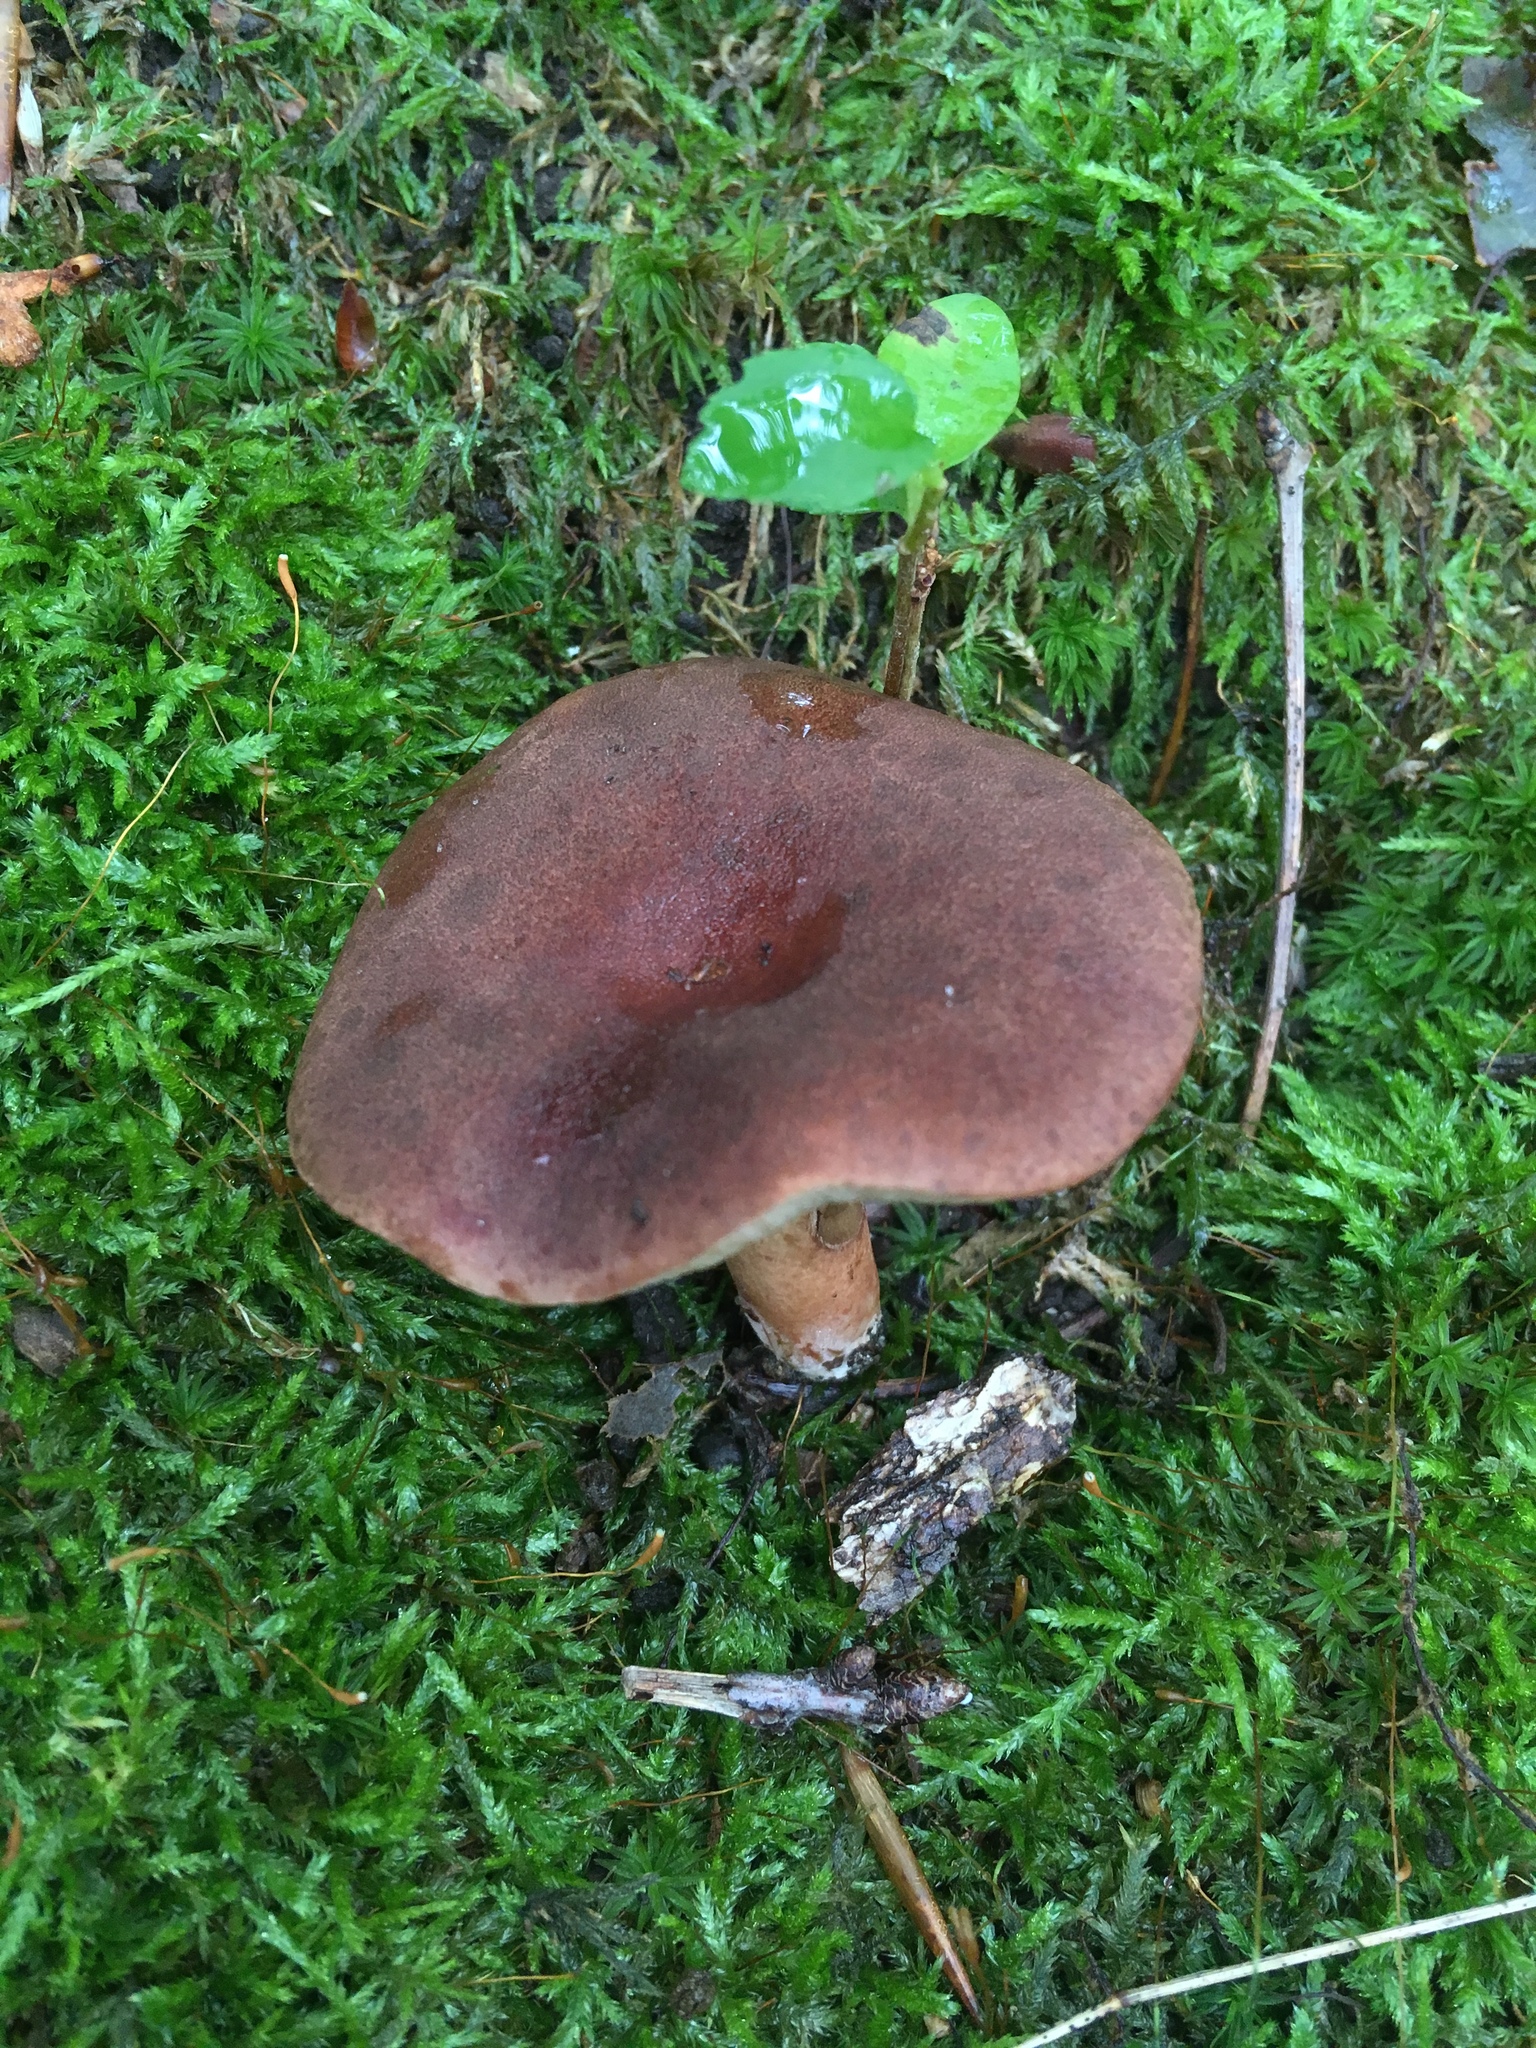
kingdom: Fungi
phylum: Basidiomycota
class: Agaricomycetes
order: Boletales
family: Boletaceae
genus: Bothia
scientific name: Bothia castanella
